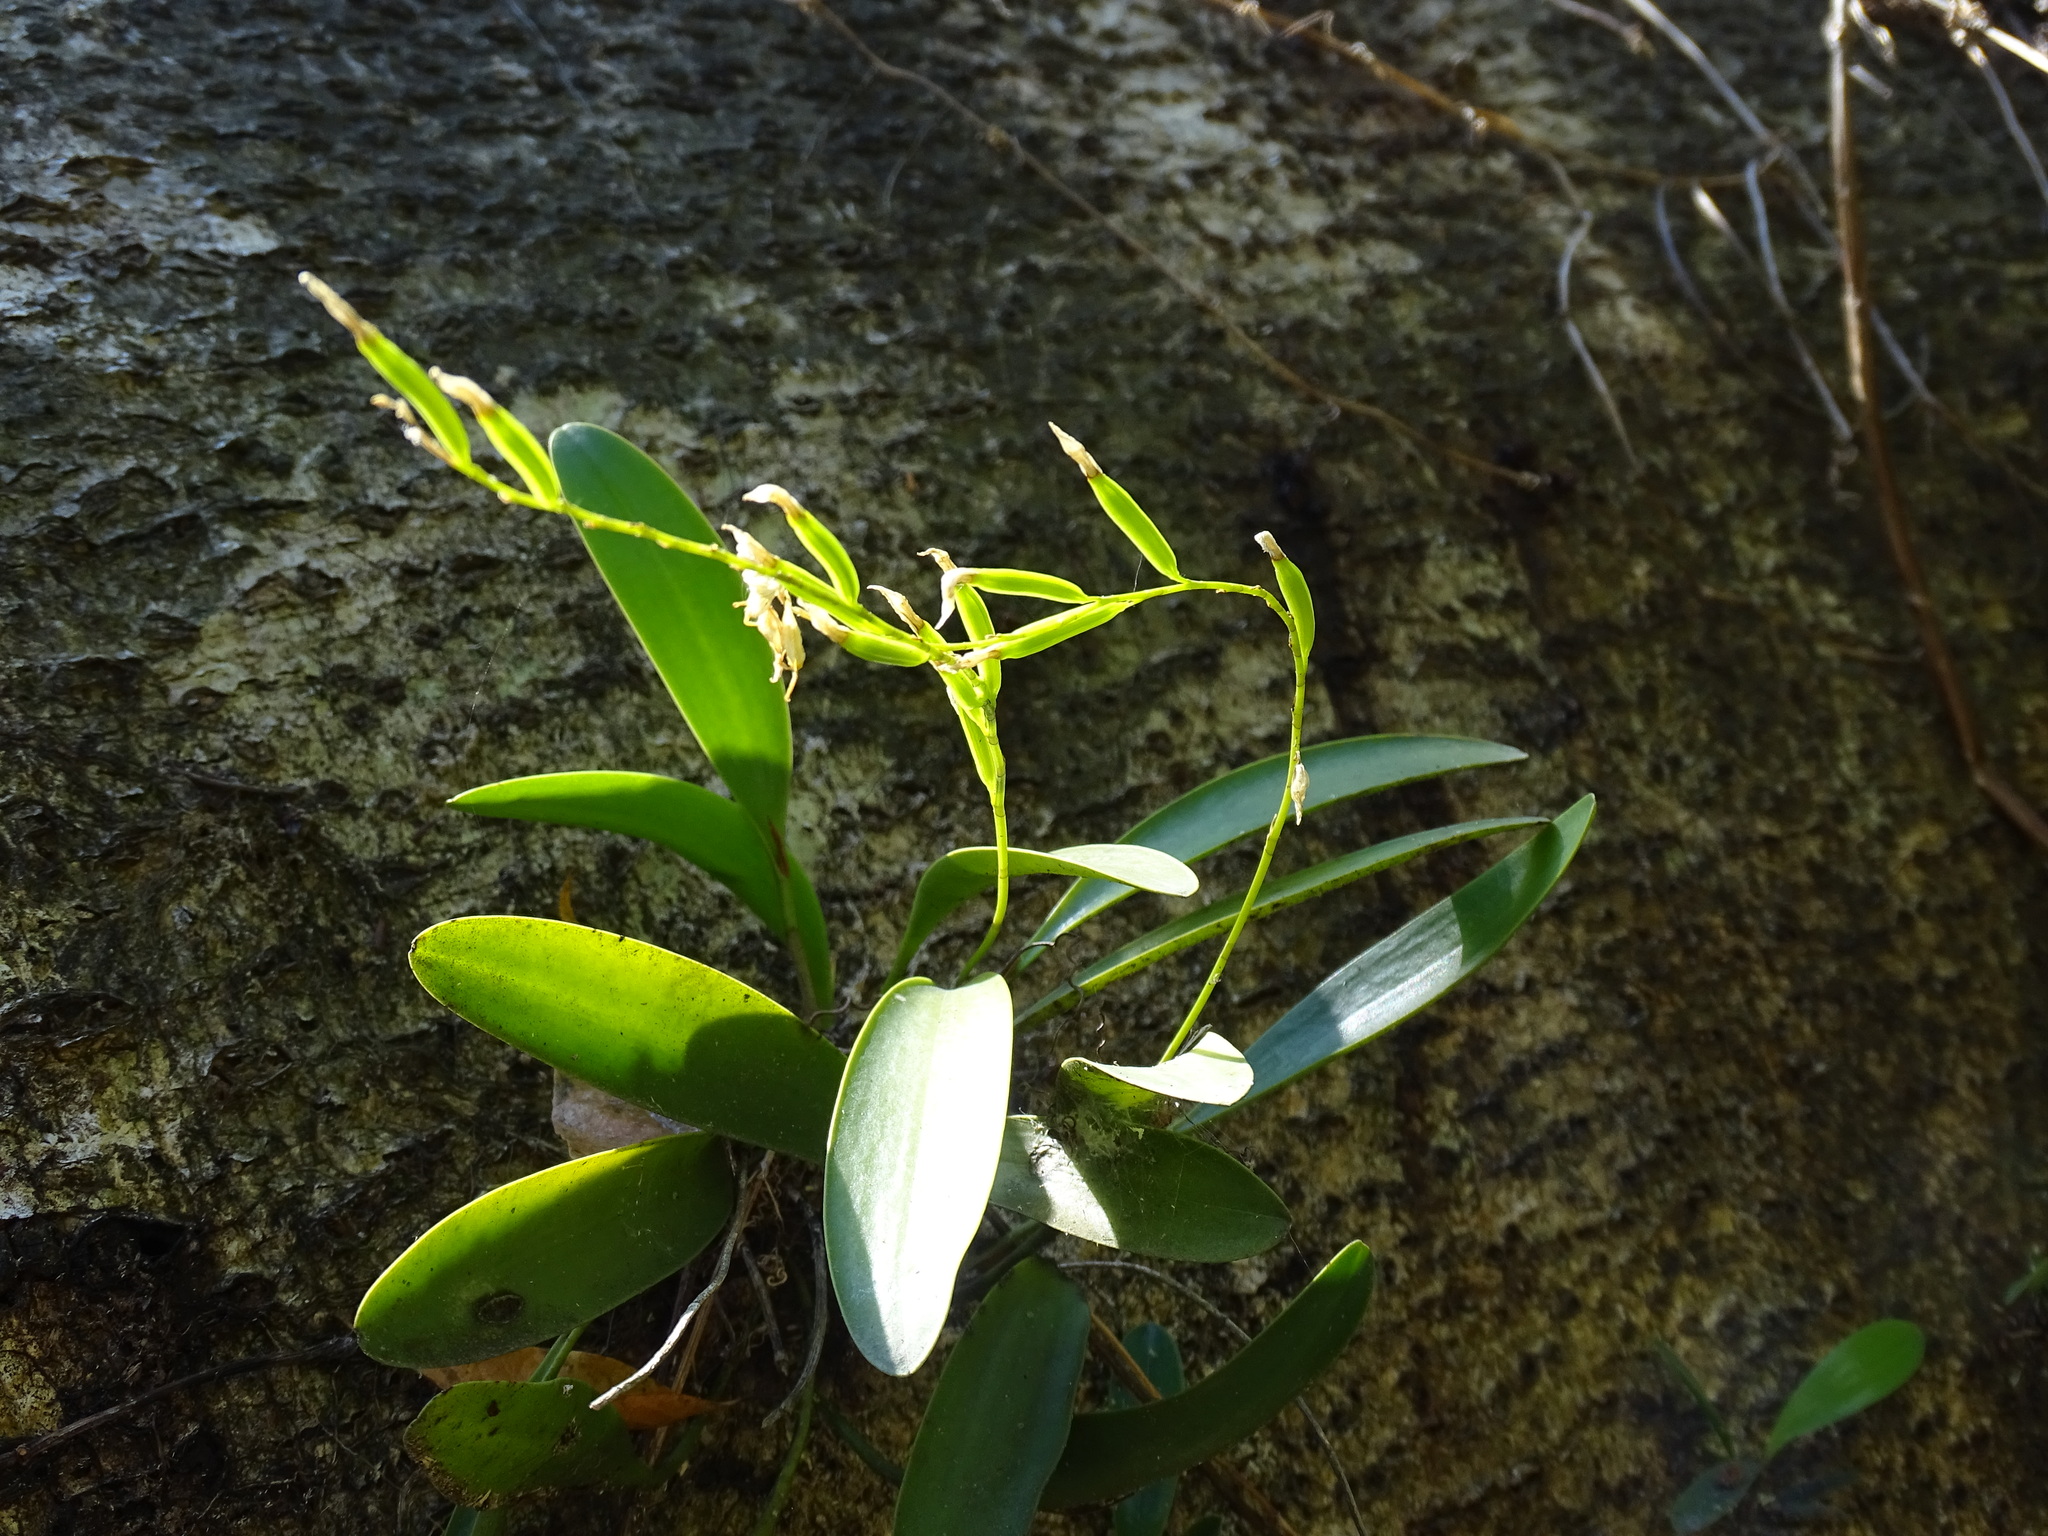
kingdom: Plantae
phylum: Tracheophyta
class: Liliopsida
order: Asparagales
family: Orchidaceae
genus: Pleurothallis
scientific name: Pleurothallis quadrifida
